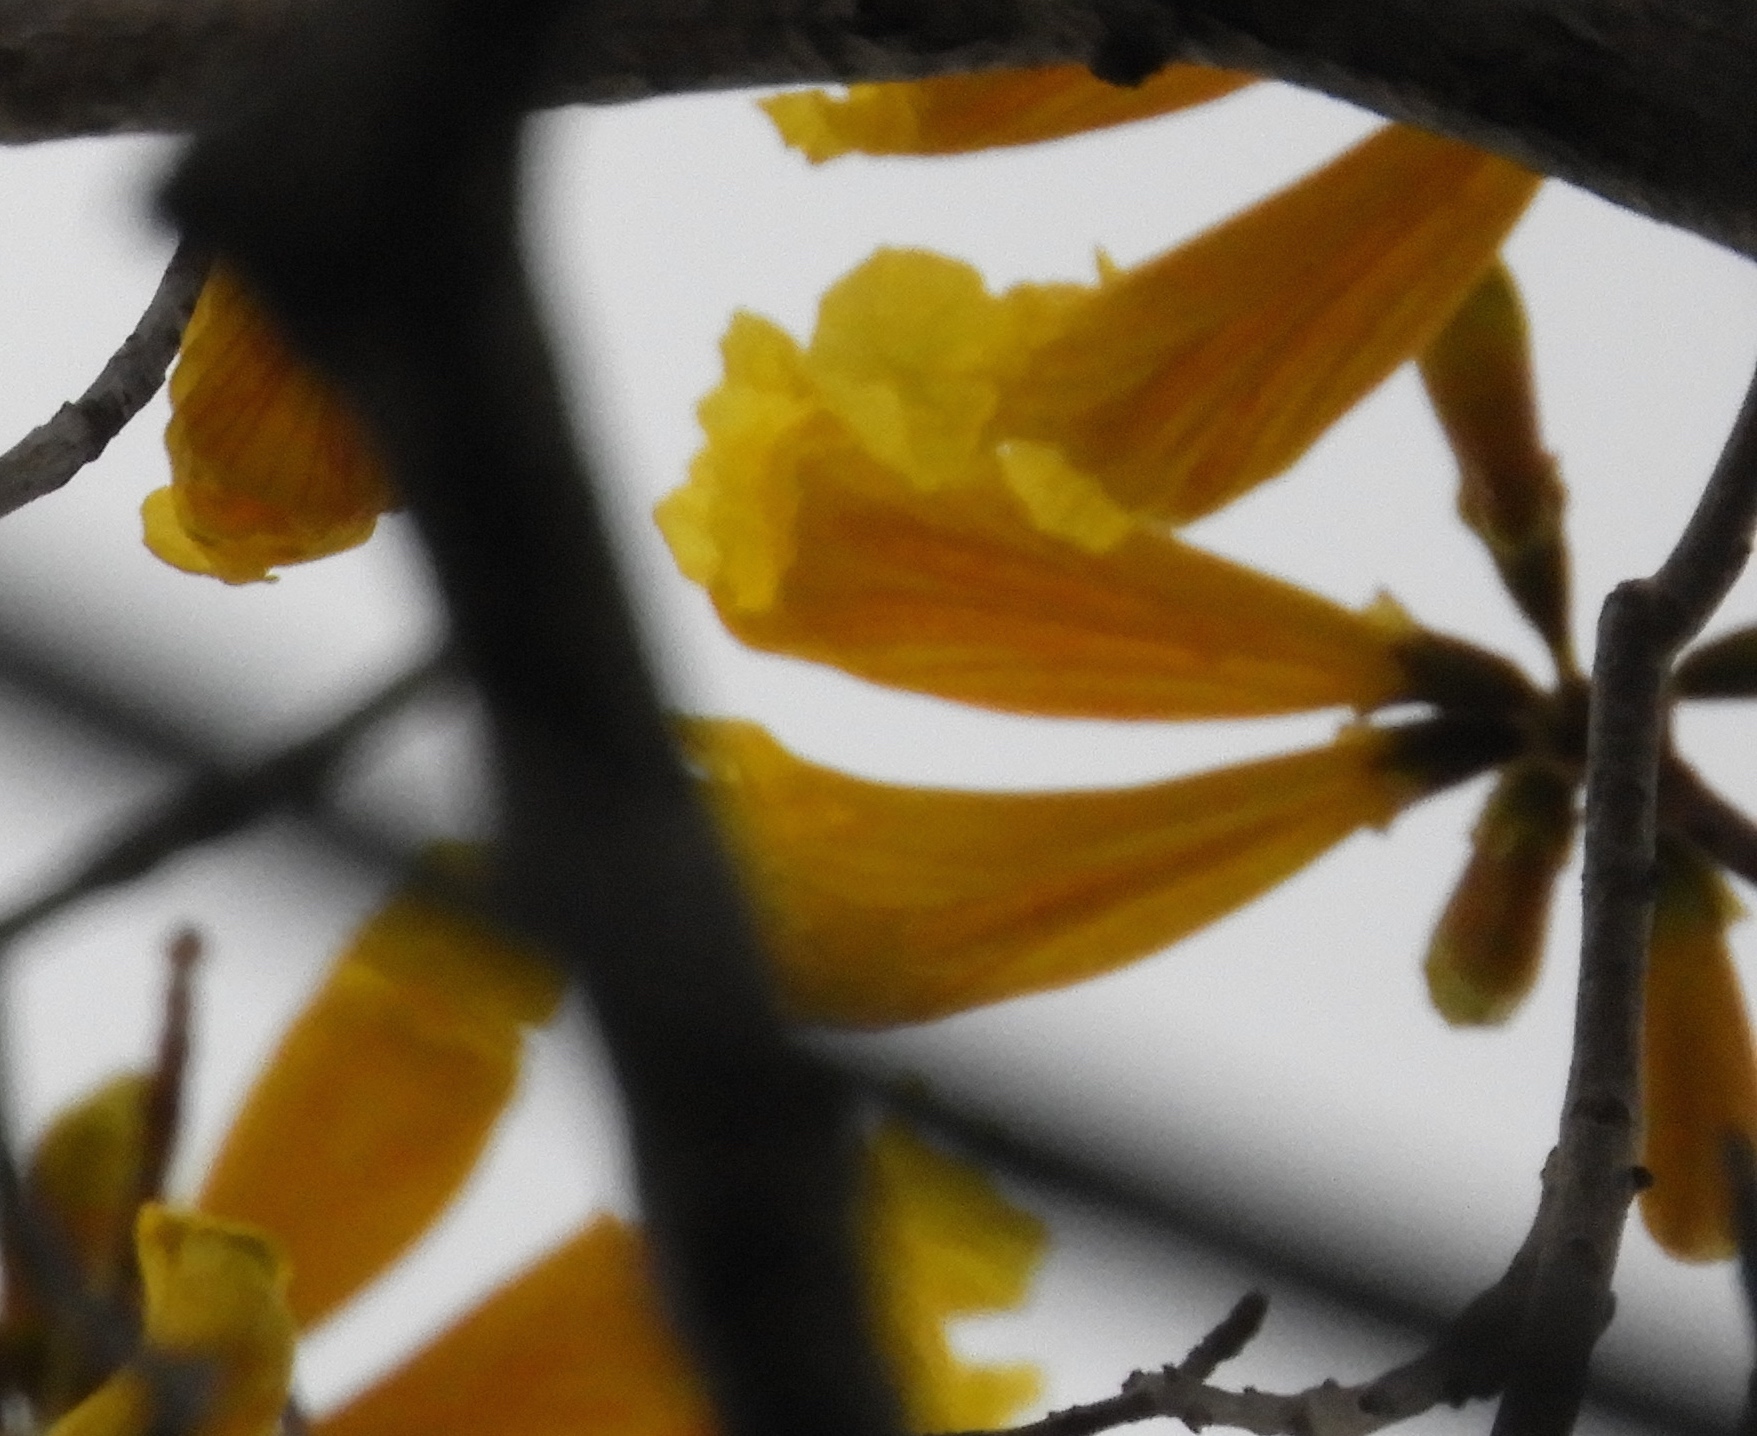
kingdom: Plantae
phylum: Tracheophyta
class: Magnoliopsida
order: Lamiales
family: Bignoniaceae
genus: Handroanthus
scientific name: Handroanthus chrysanthus
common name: Trumpet trees
